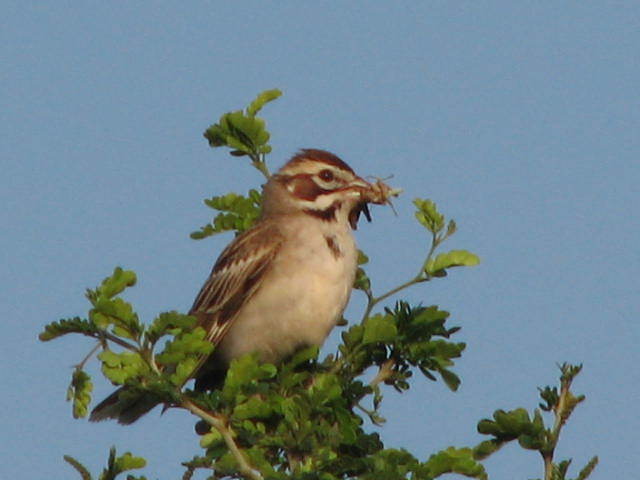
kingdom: Animalia
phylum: Chordata
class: Aves
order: Passeriformes
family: Passerellidae
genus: Chondestes
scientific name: Chondestes grammacus
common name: Lark sparrow
